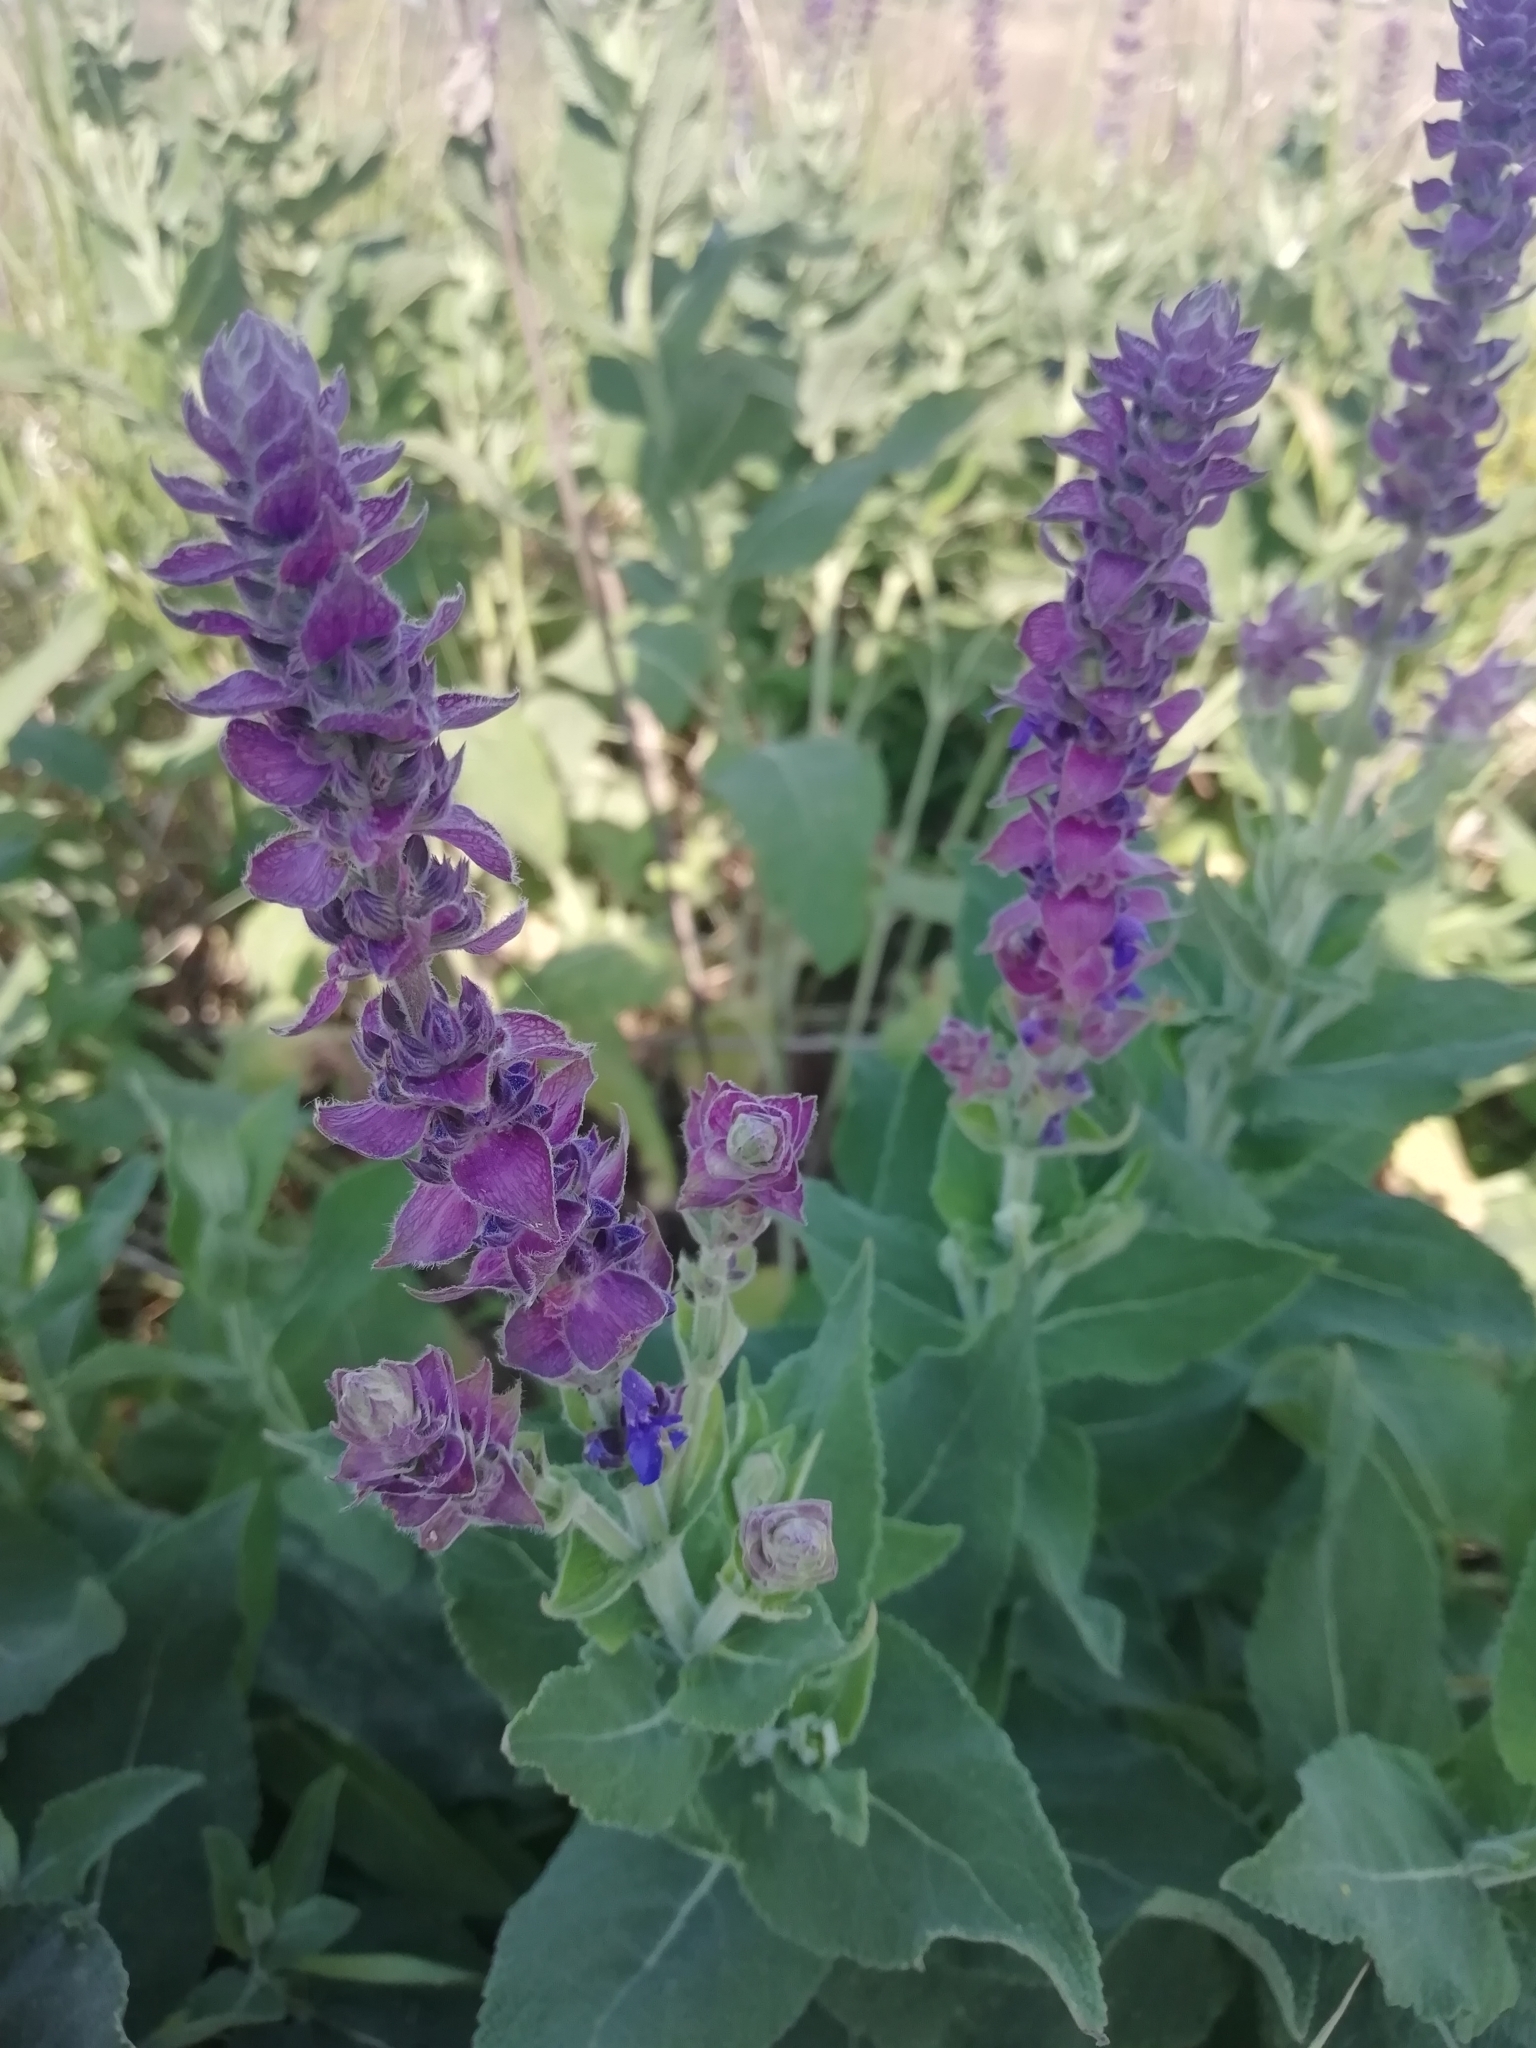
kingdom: Plantae
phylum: Tracheophyta
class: Magnoliopsida
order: Lamiales
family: Lamiaceae
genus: Salvia
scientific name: Salvia nemorosa
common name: Balkan clary
